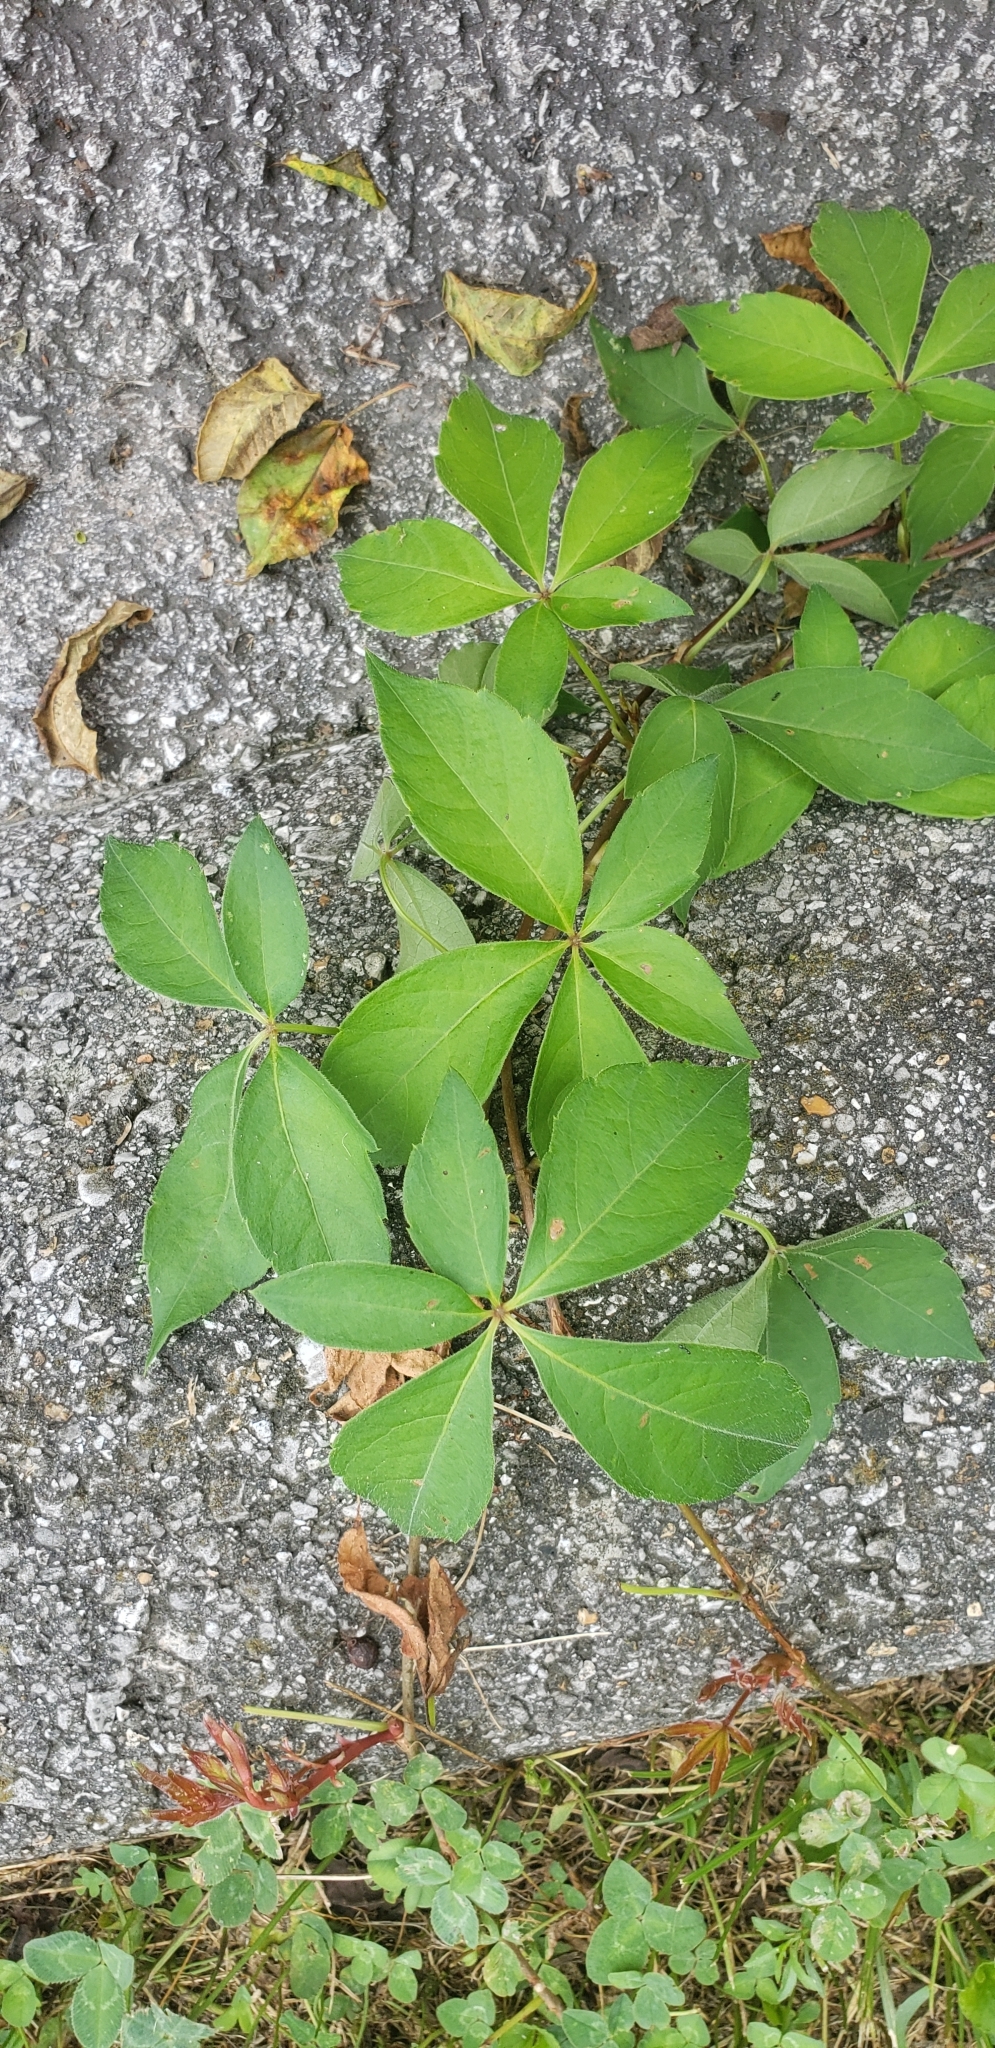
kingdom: Plantae
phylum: Tracheophyta
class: Magnoliopsida
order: Vitales
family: Vitaceae
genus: Parthenocissus
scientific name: Parthenocissus quinquefolia
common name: Virginia-creeper
